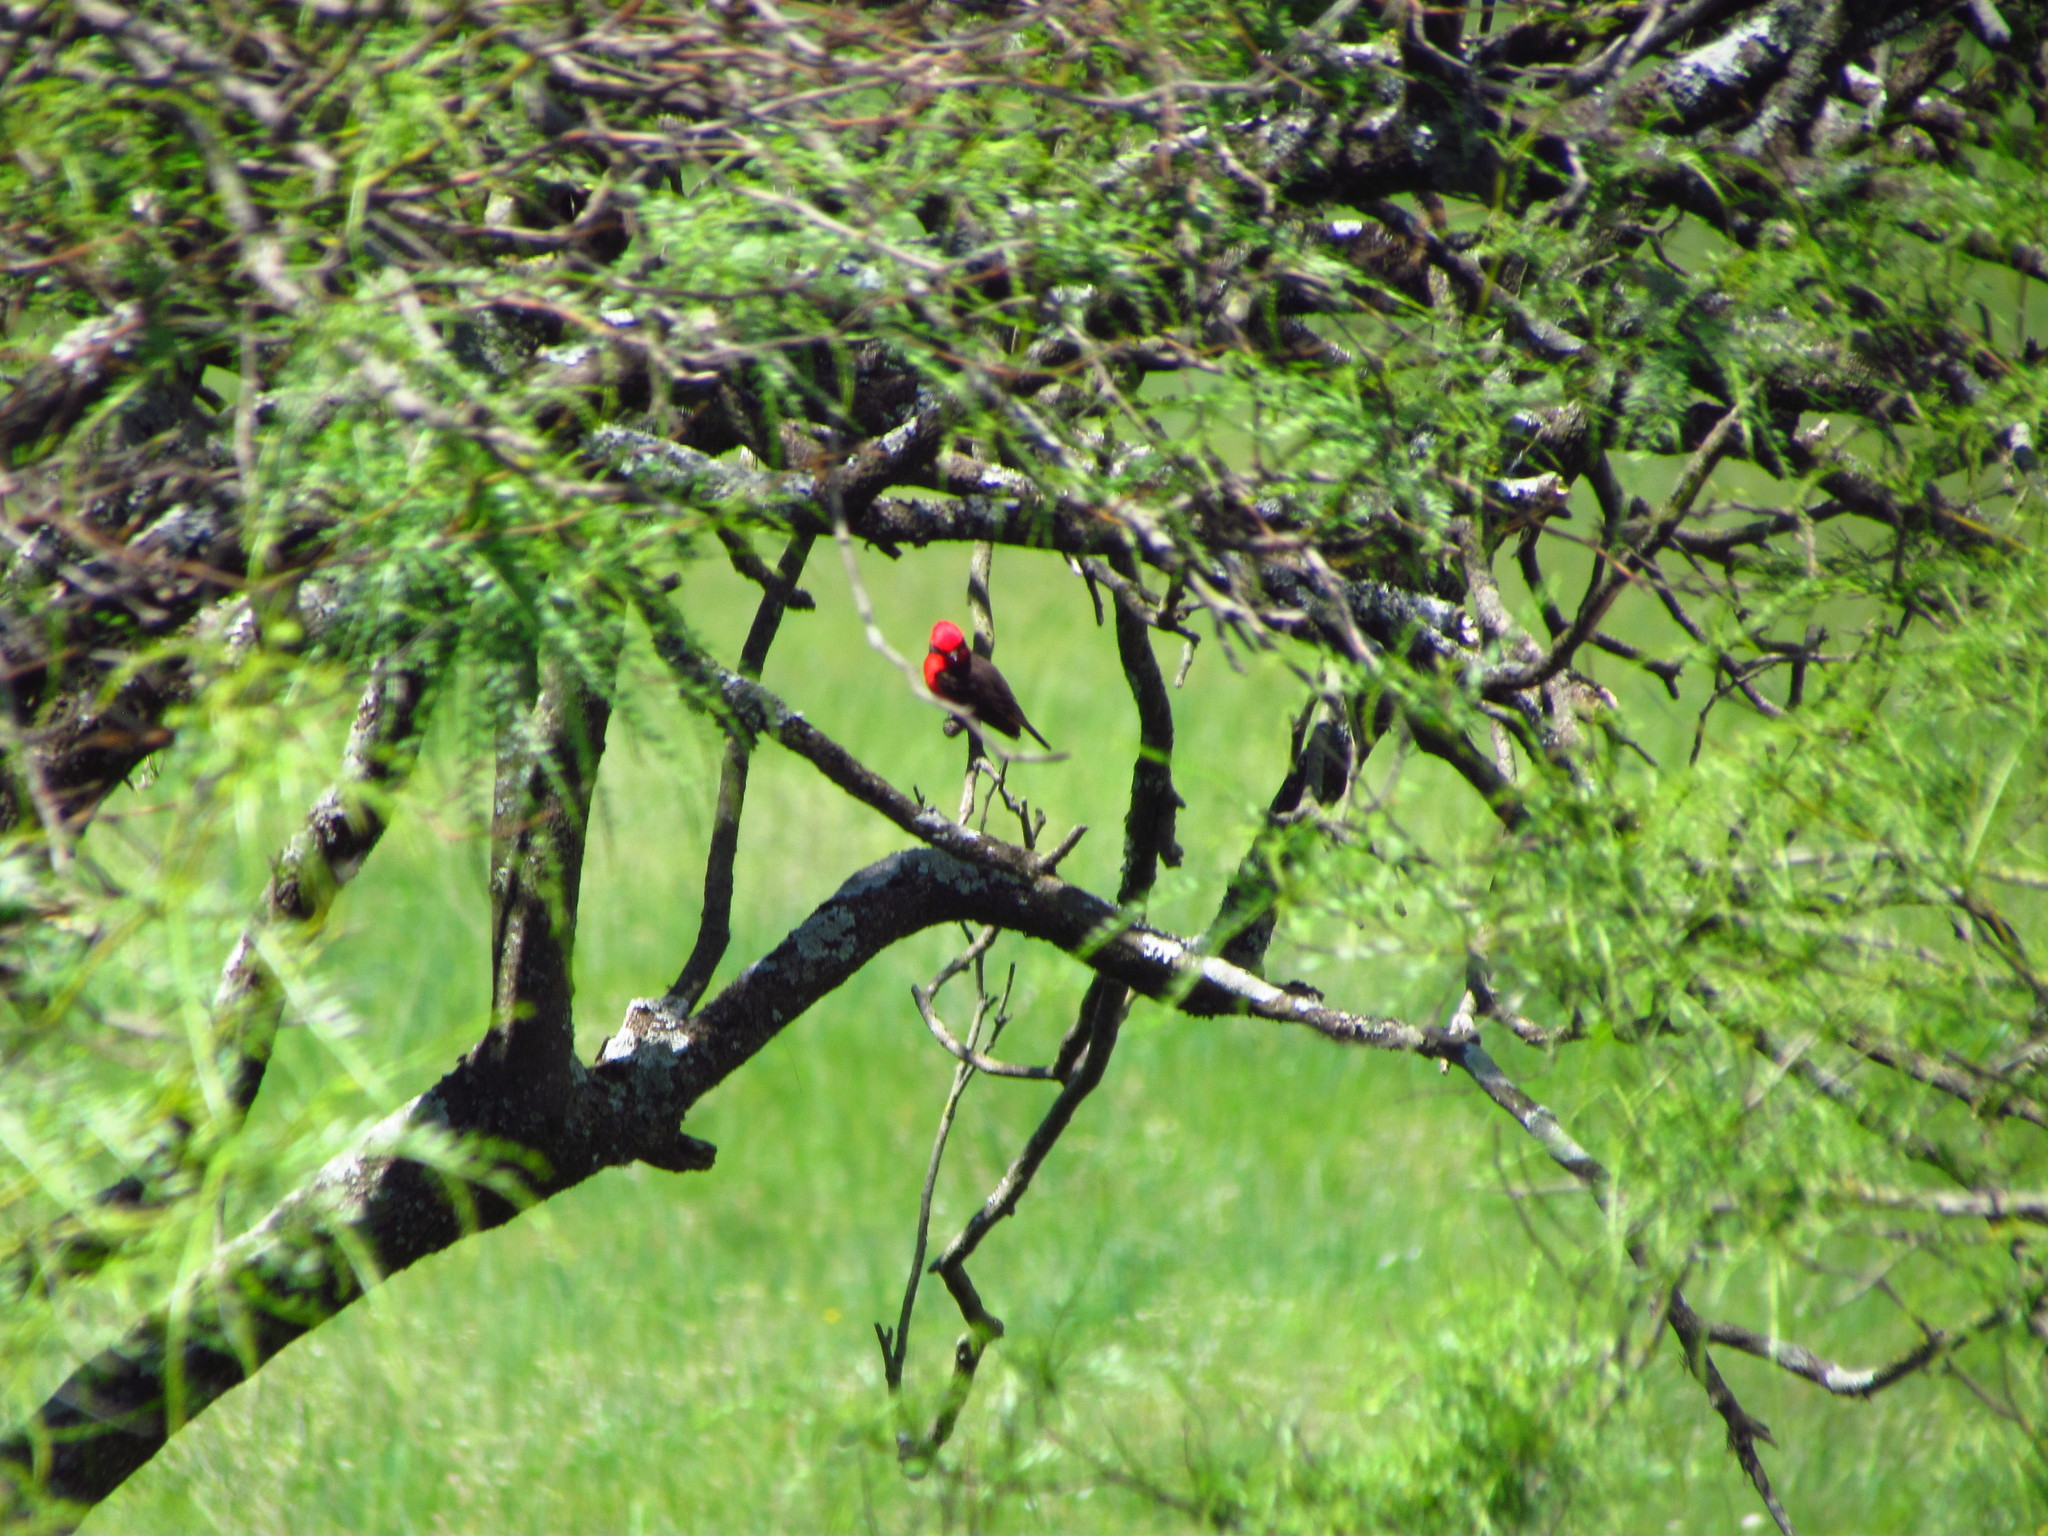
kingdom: Animalia
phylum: Chordata
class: Aves
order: Passeriformes
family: Tyrannidae
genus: Pyrocephalus
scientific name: Pyrocephalus rubinus
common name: Vermilion flycatcher
